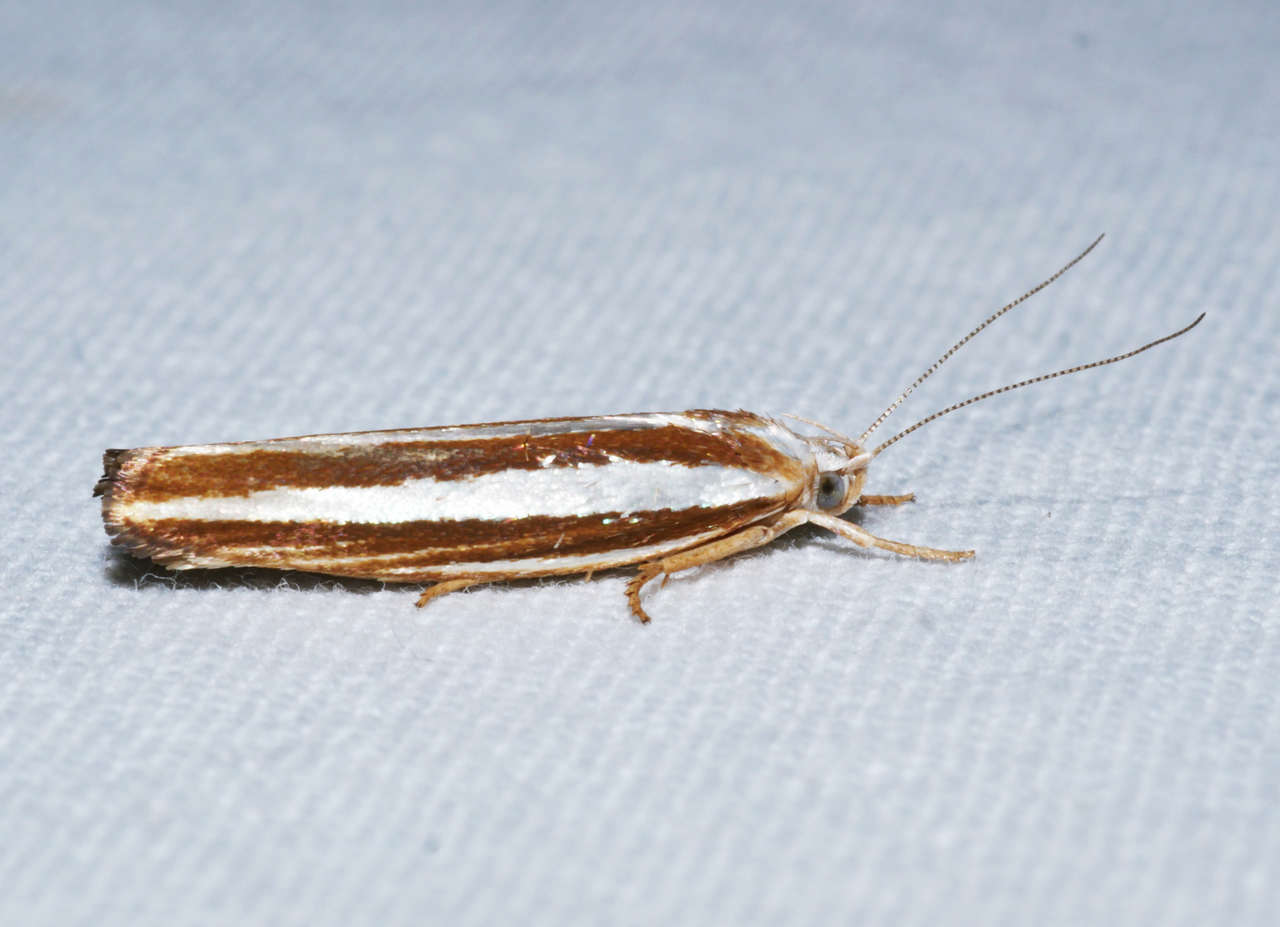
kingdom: Animalia
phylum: Arthropoda
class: Insecta
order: Lepidoptera
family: Xyloryctidae
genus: Catoryctis
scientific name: Catoryctis subparallela
